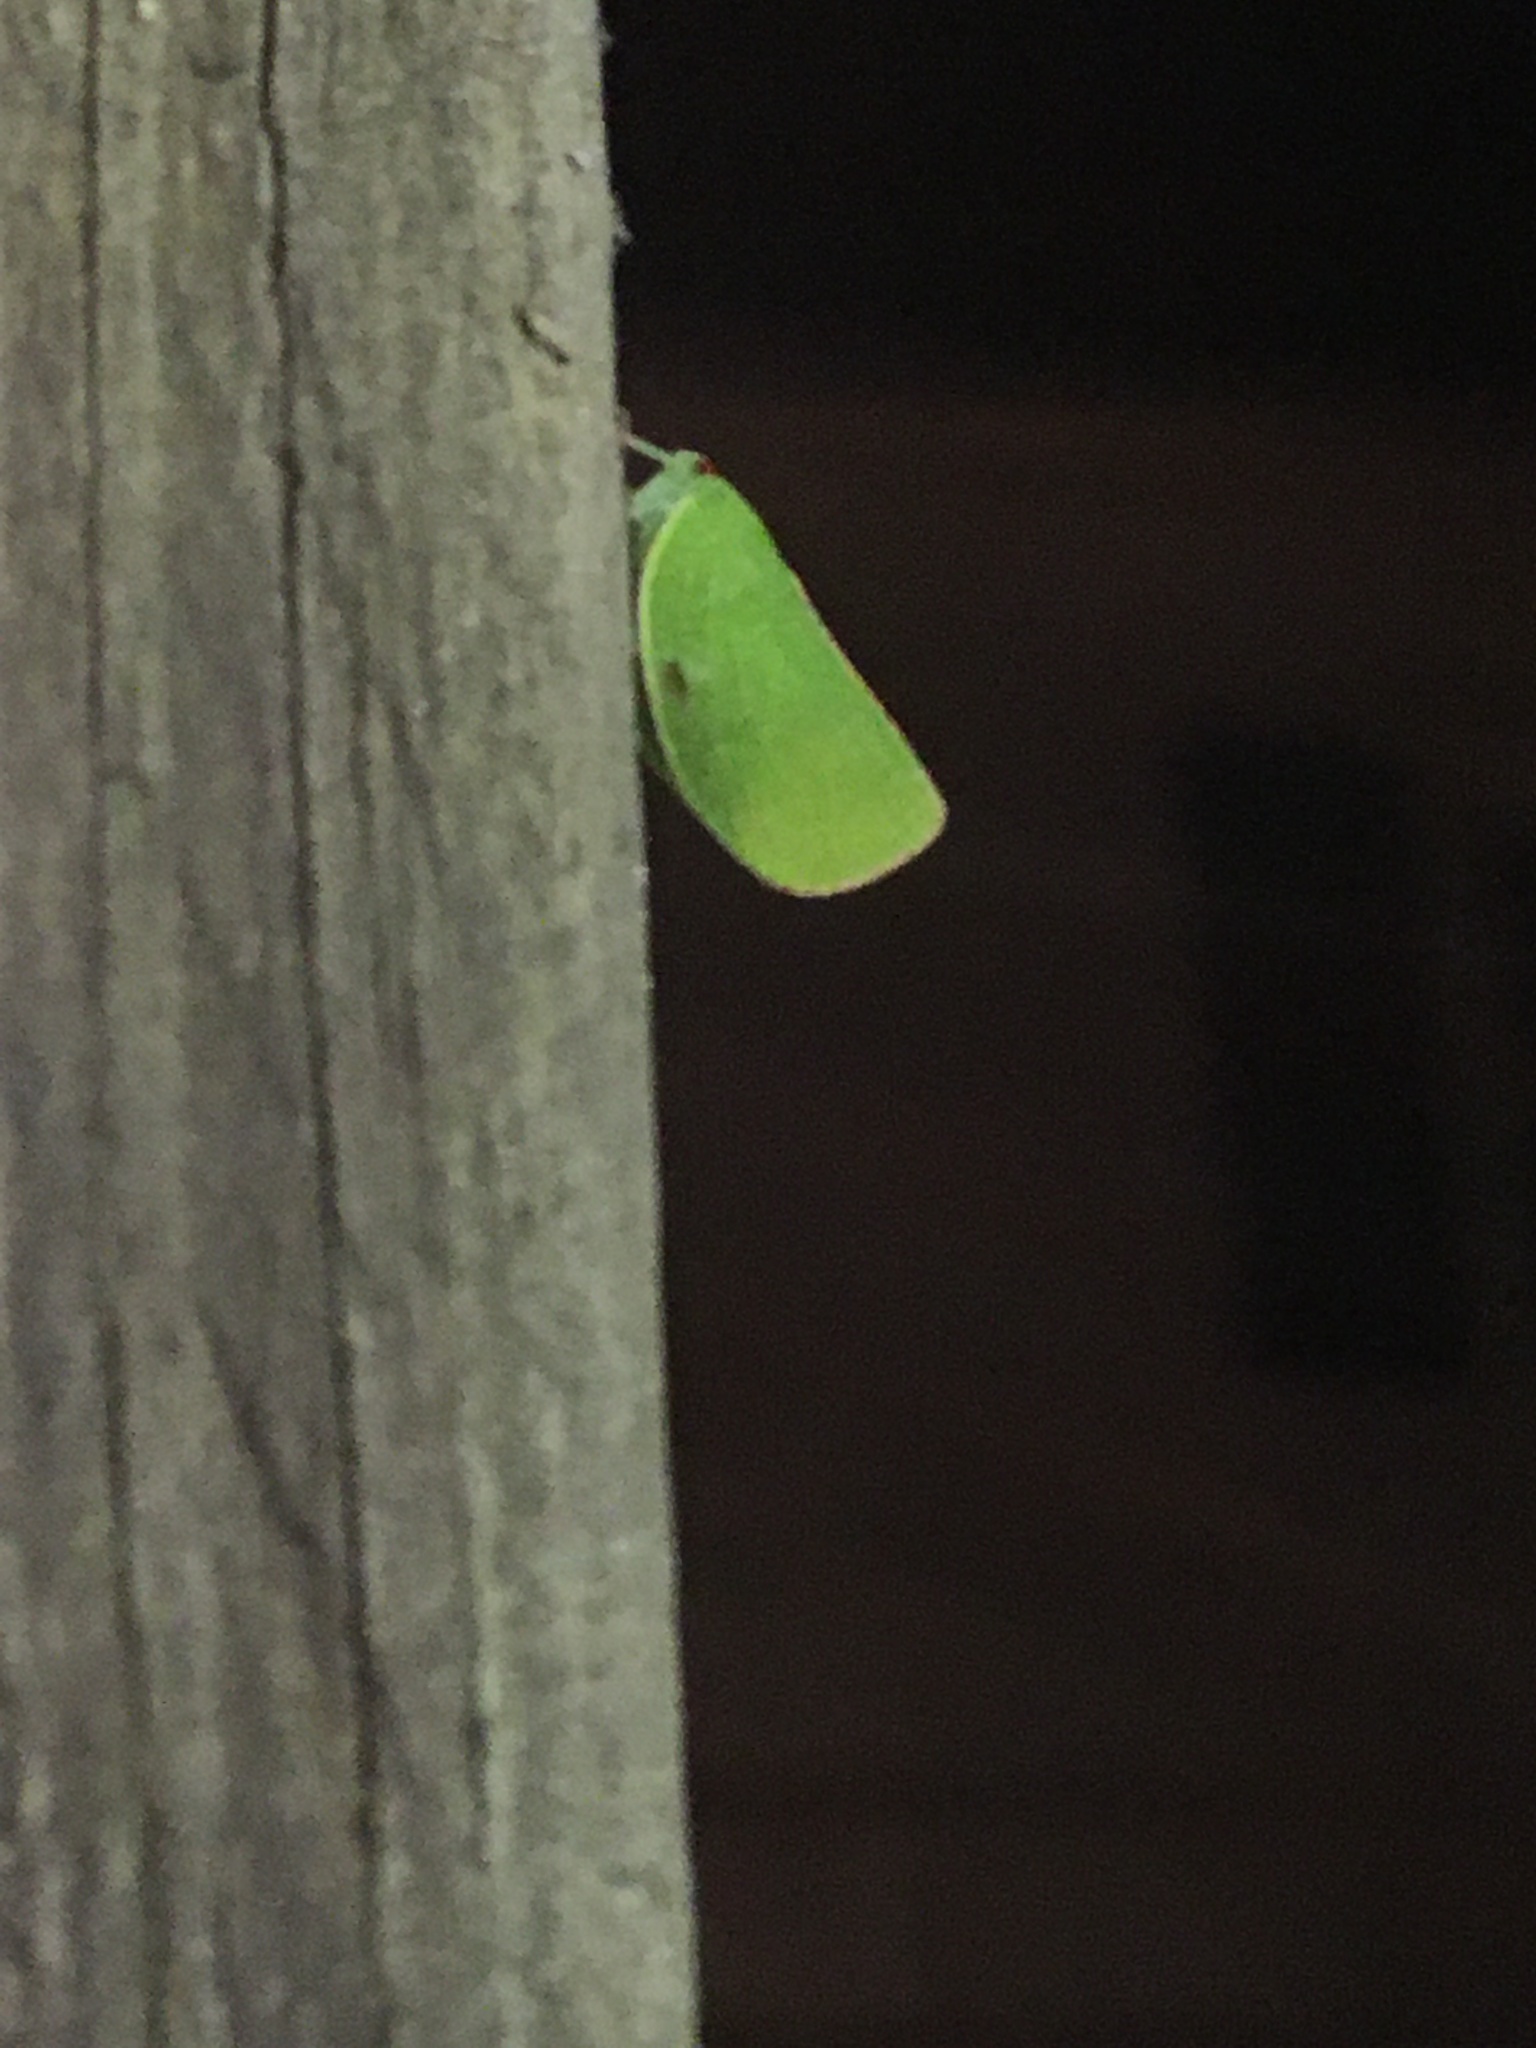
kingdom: Animalia
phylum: Arthropoda
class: Insecta
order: Hemiptera
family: Acanaloniidae
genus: Acanalonia
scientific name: Acanalonia conica
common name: Green cone-headed planthopper
